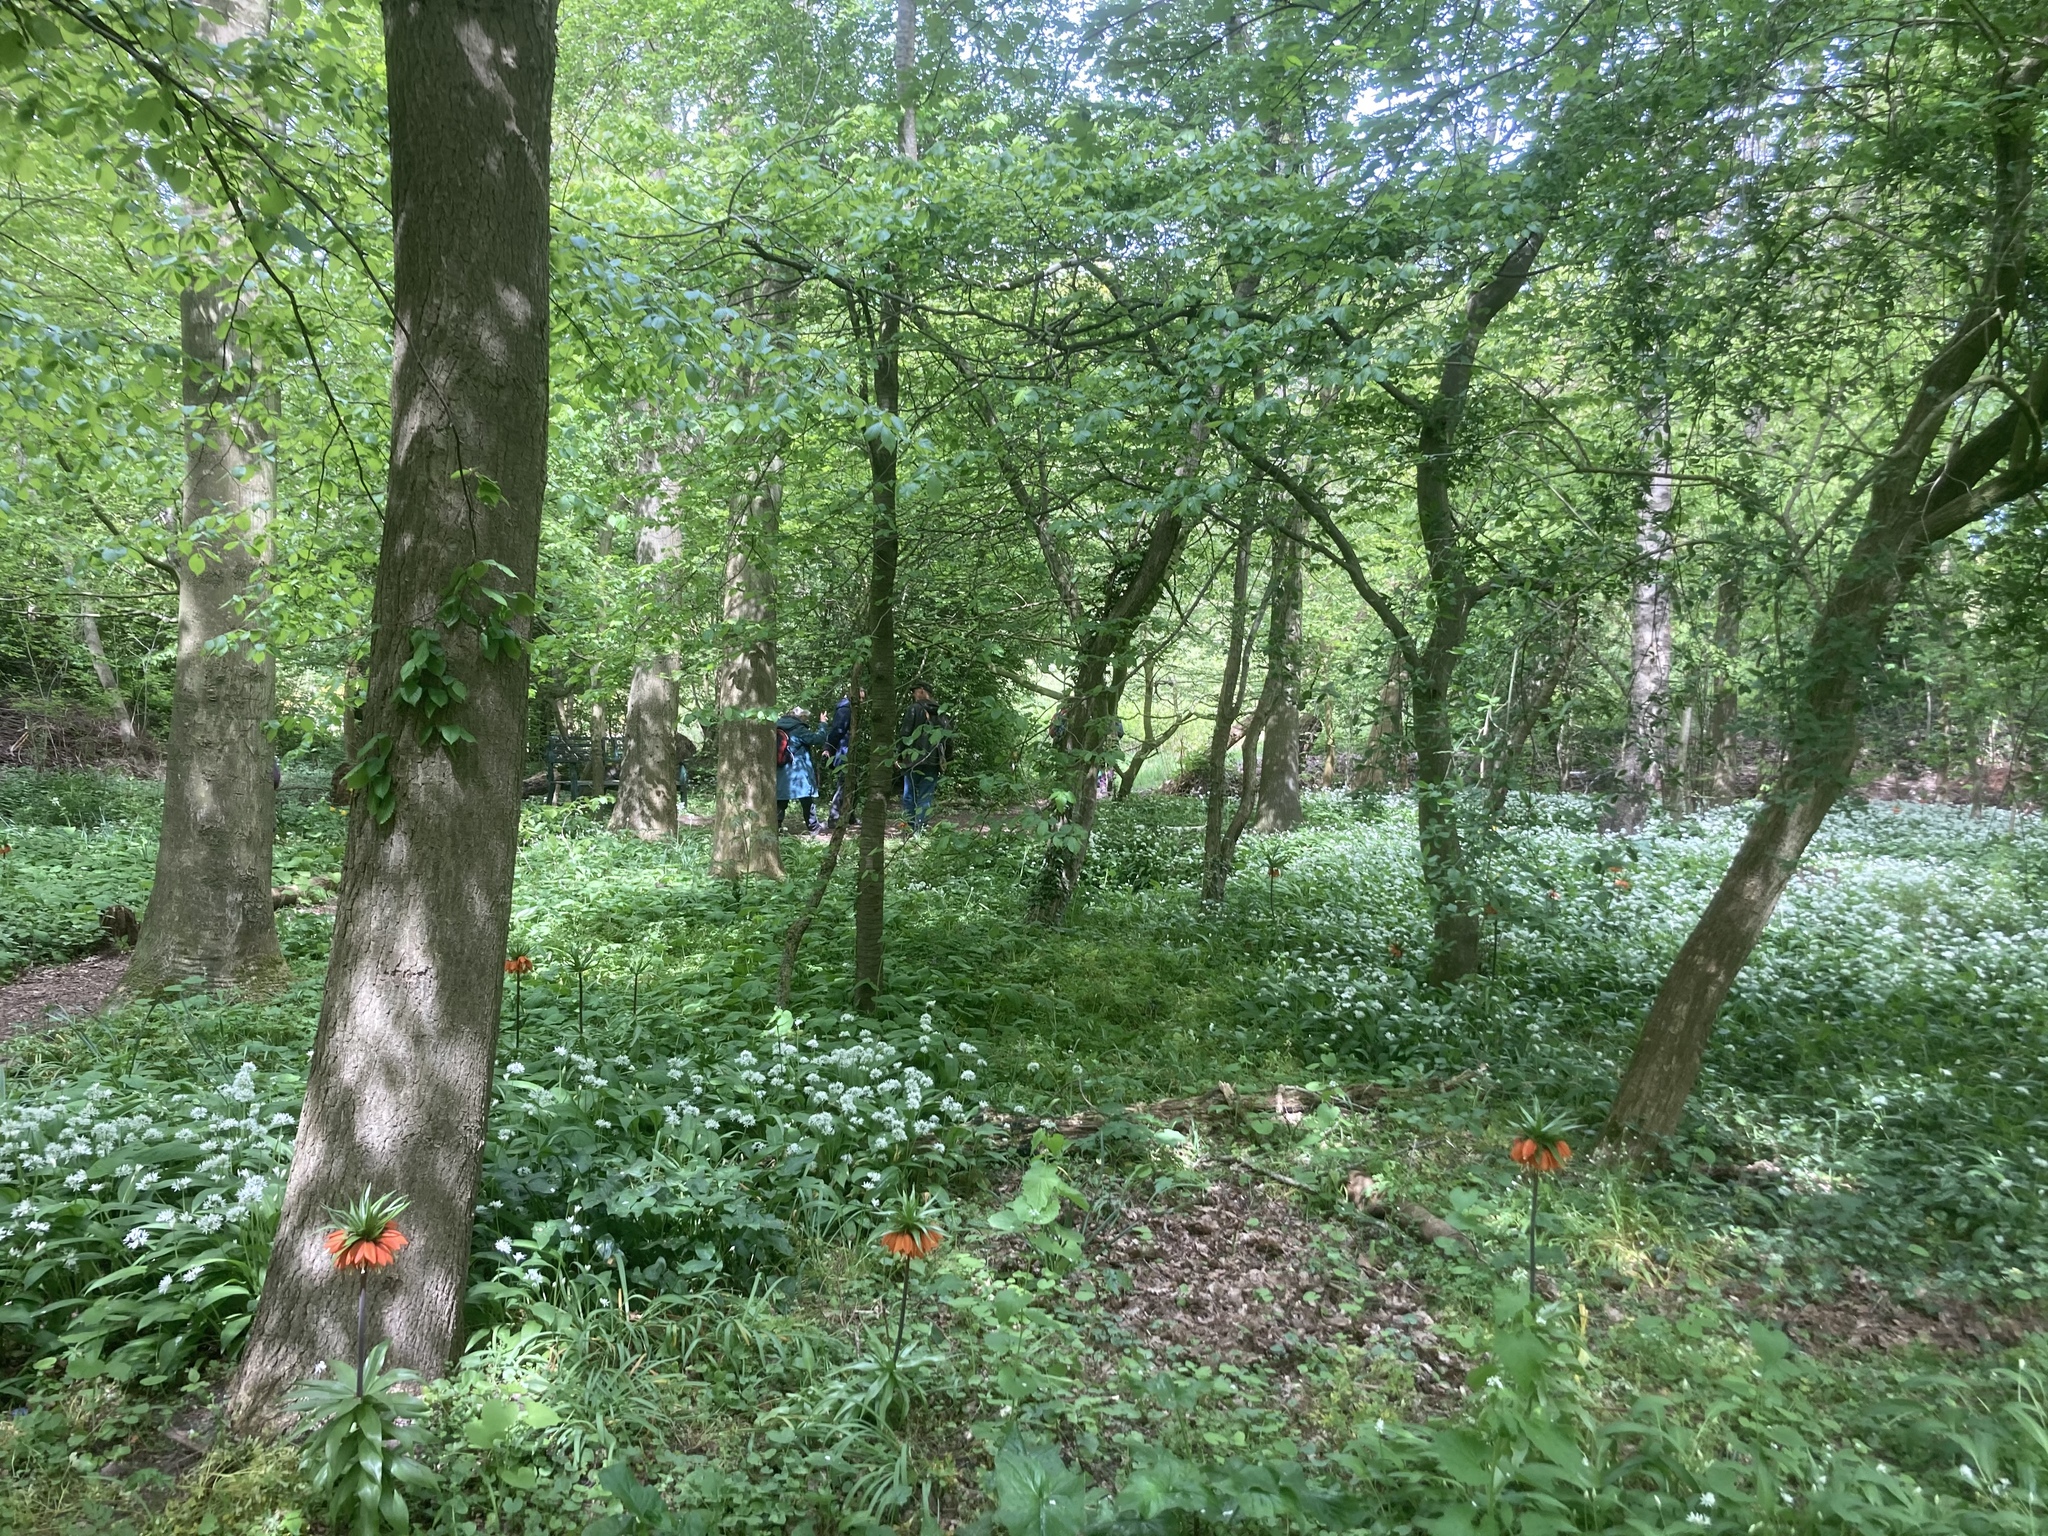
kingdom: Plantae
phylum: Tracheophyta
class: Liliopsida
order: Asparagales
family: Amaryllidaceae
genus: Allium
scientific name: Allium ursinum
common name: Ramsons
